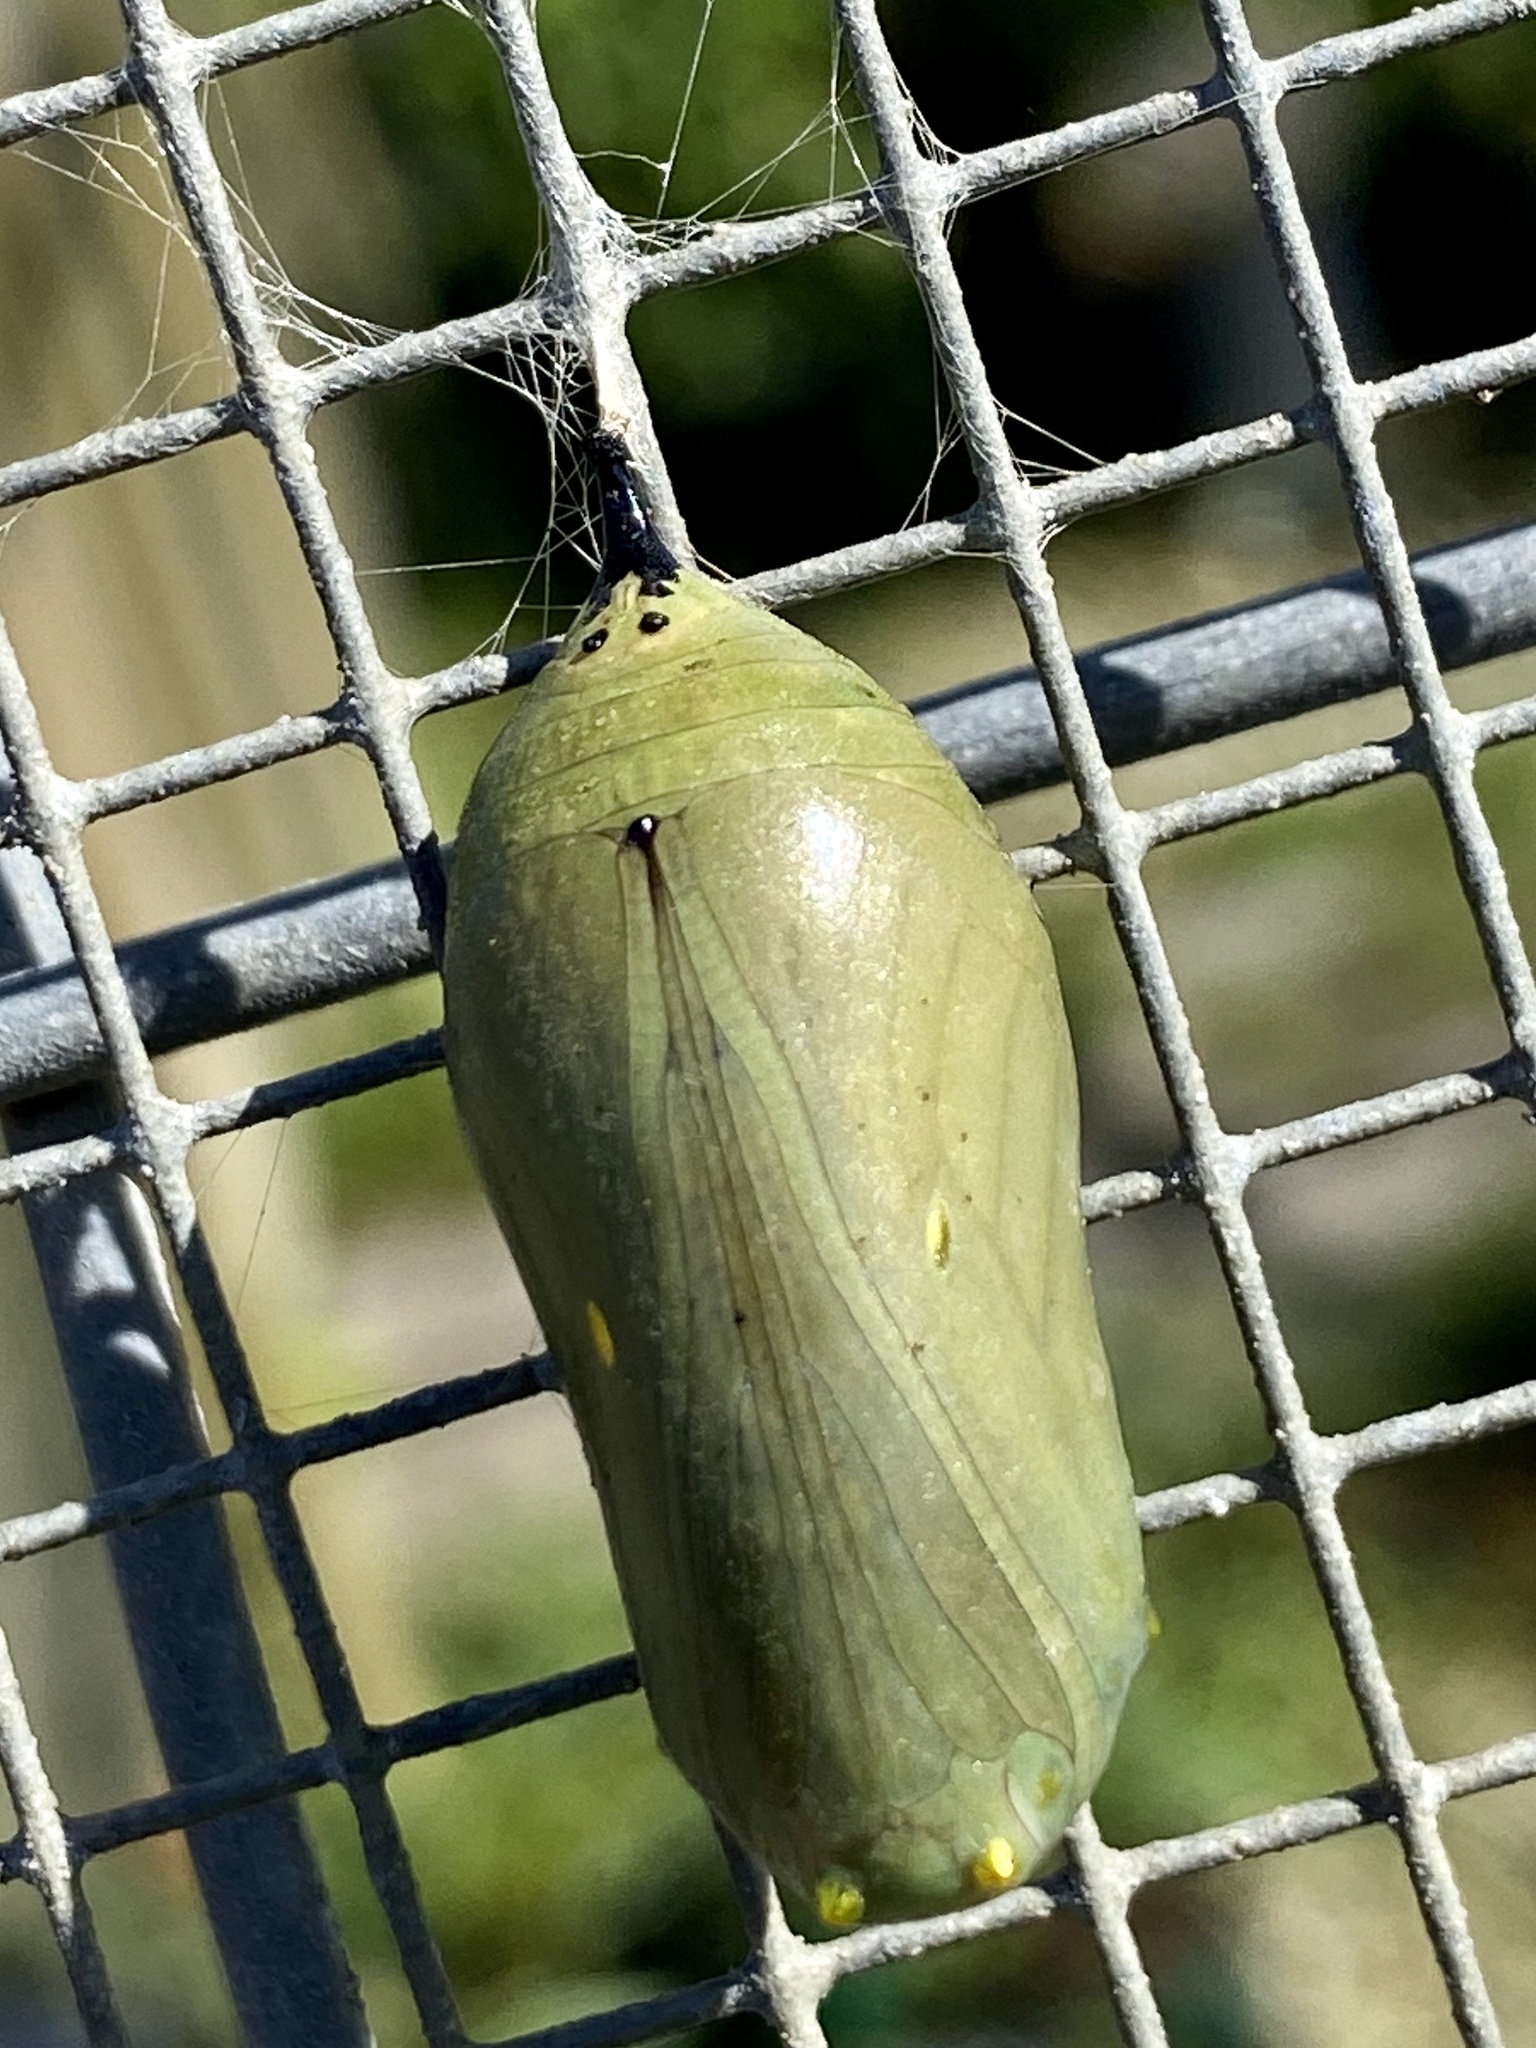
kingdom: Animalia
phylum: Arthropoda
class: Insecta
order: Lepidoptera
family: Nymphalidae
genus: Danaus
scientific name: Danaus plexippus
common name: Monarch
